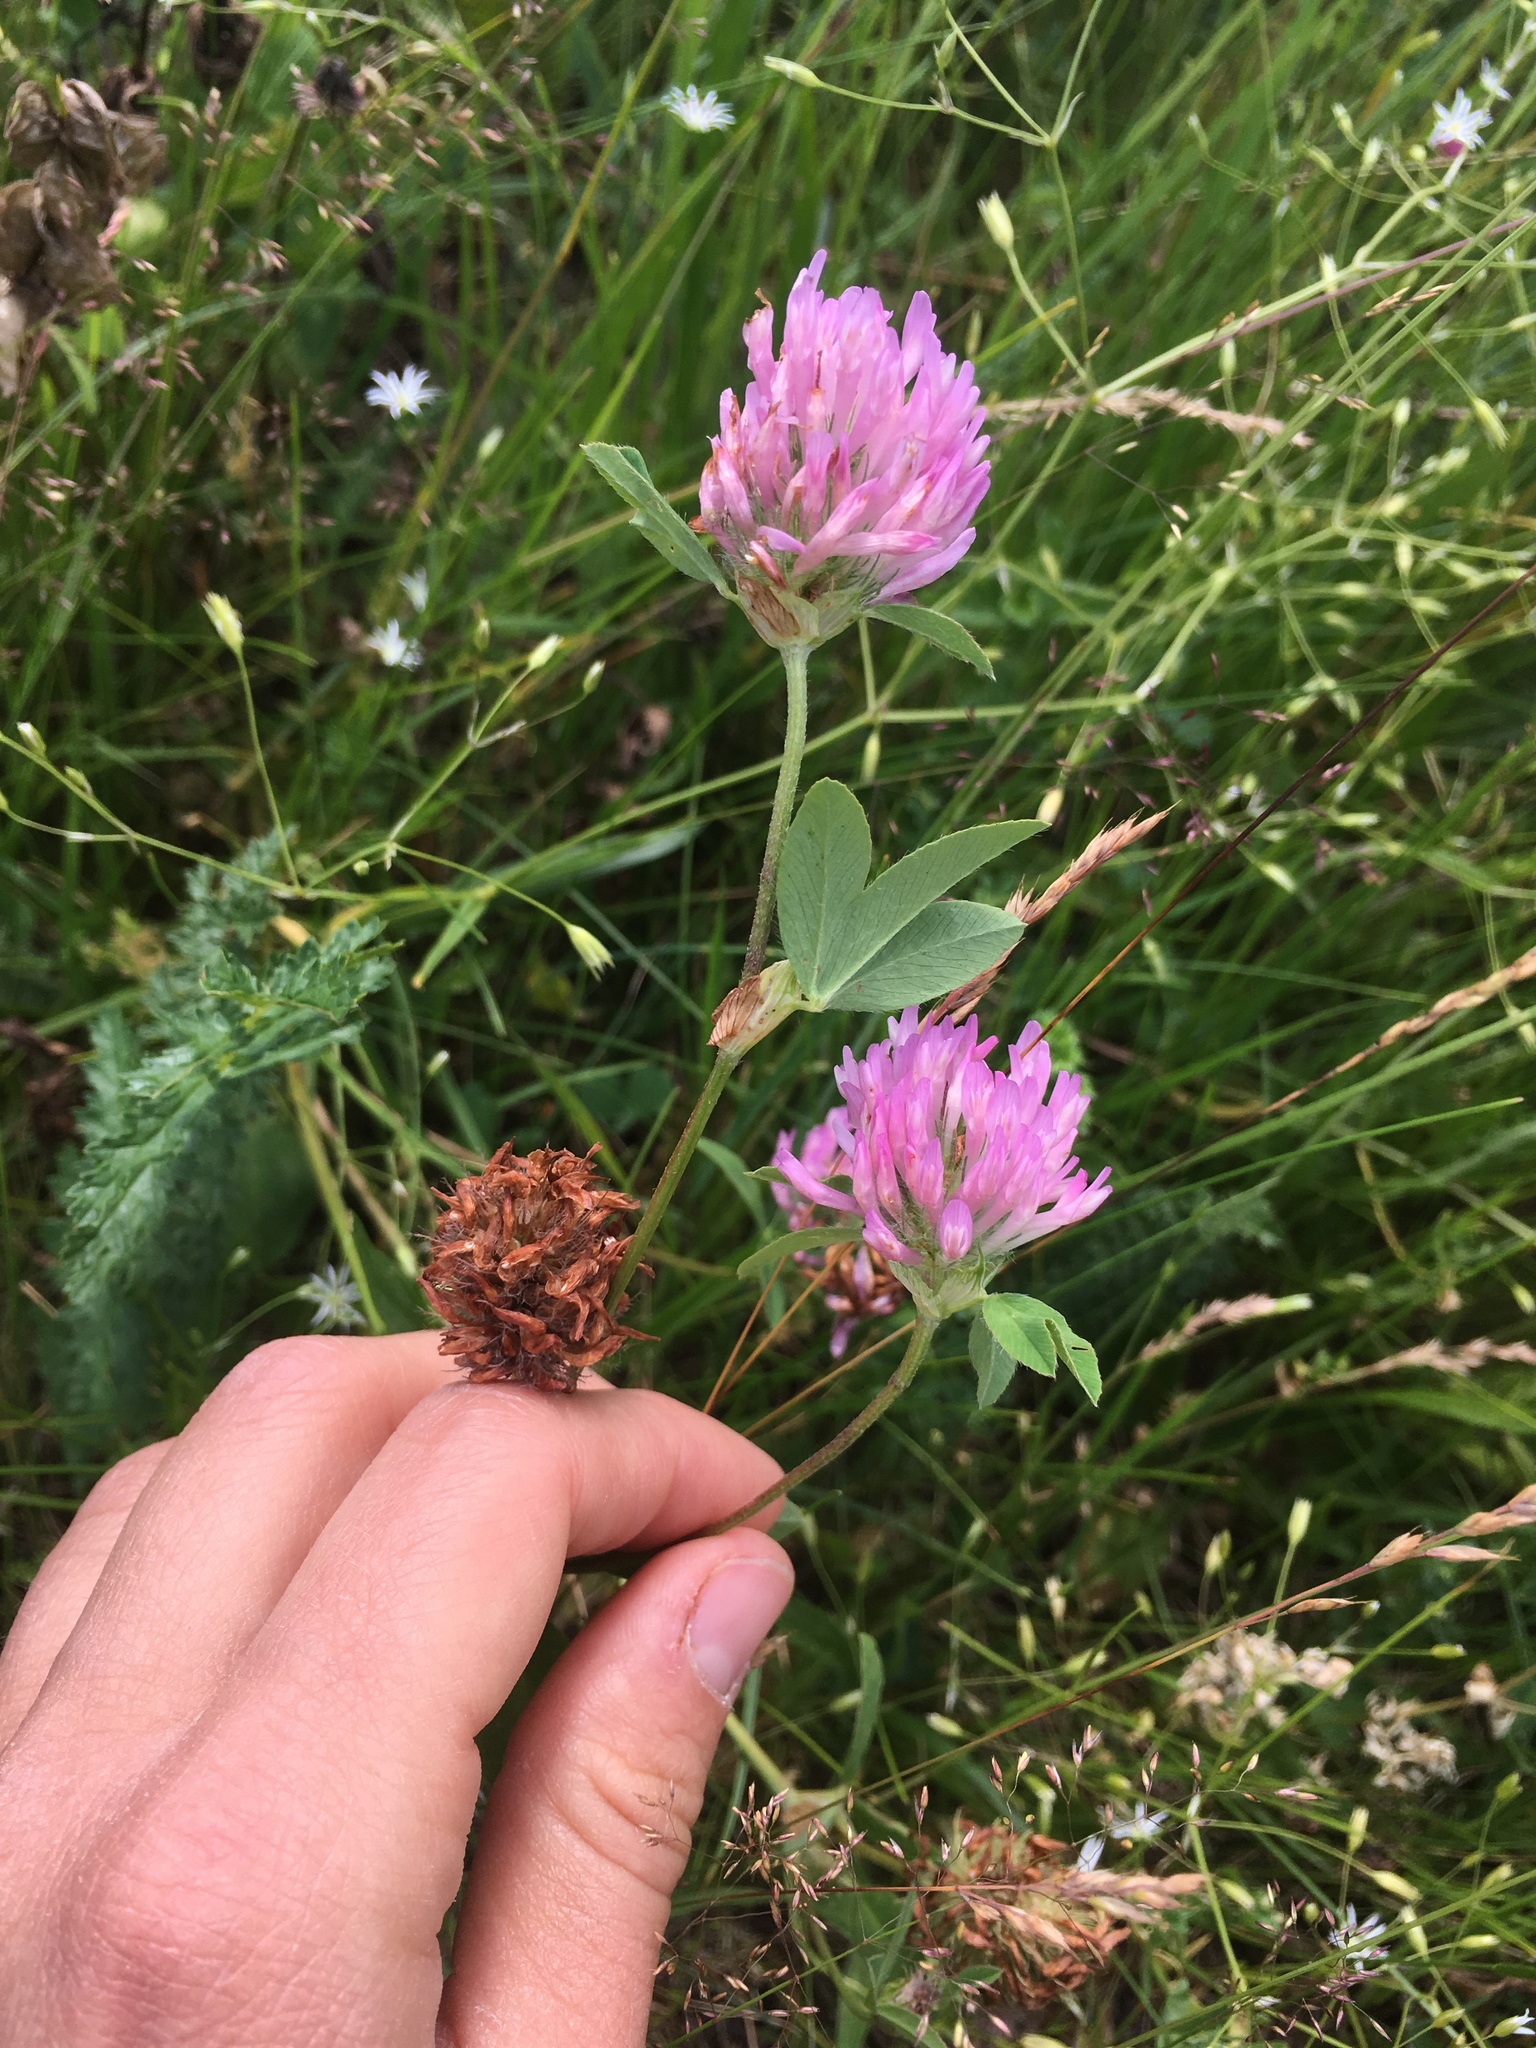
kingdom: Plantae
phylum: Tracheophyta
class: Magnoliopsida
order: Fabales
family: Fabaceae
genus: Trifolium
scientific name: Trifolium pratense
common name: Red clover
